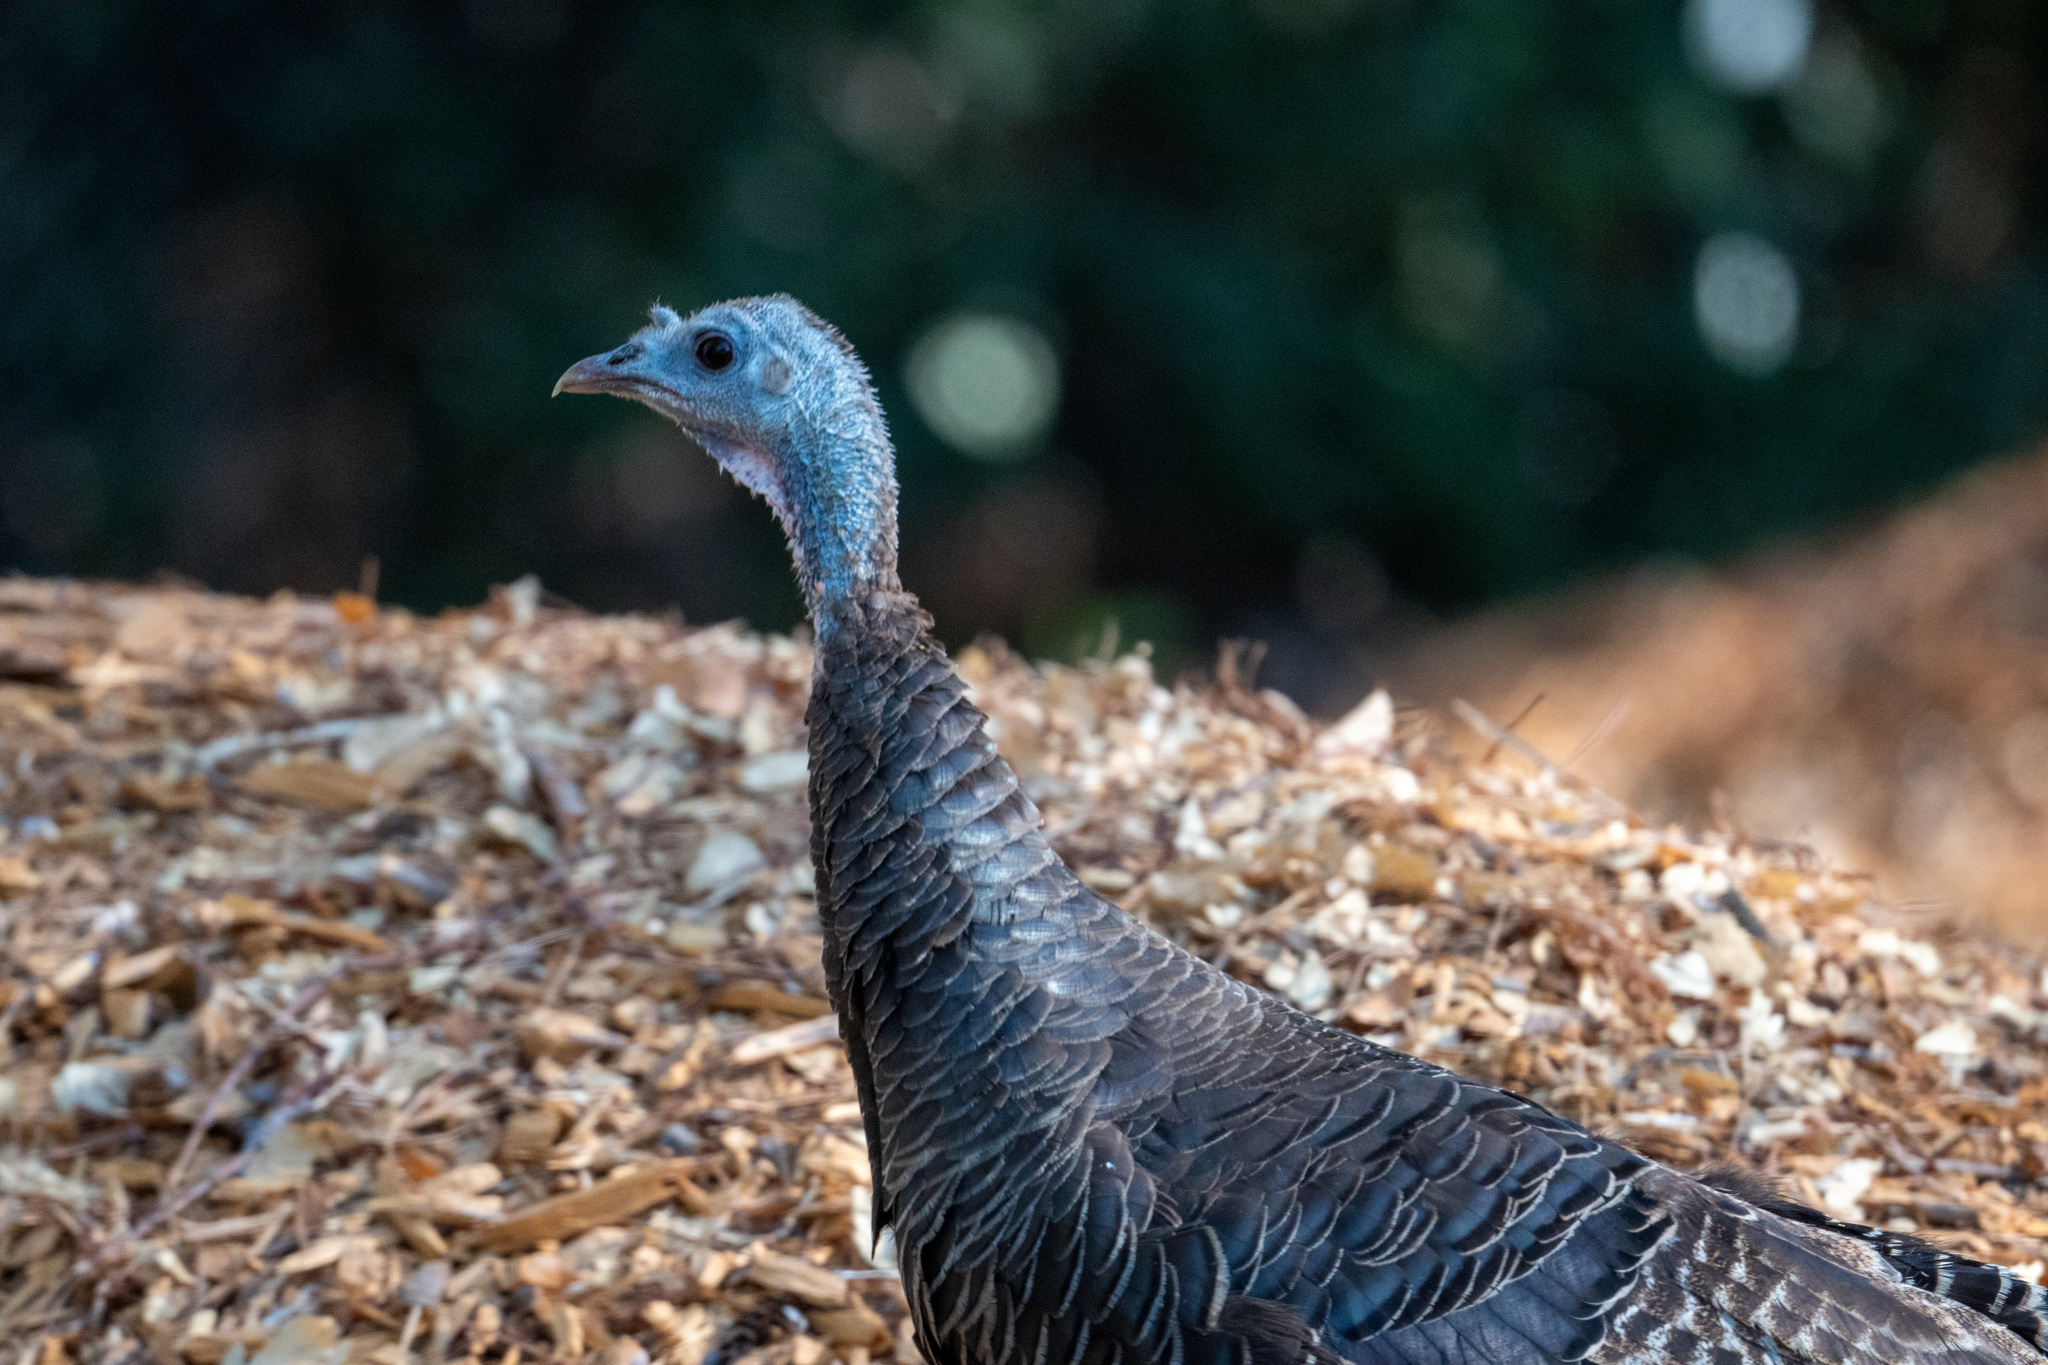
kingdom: Animalia
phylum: Chordata
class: Aves
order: Galliformes
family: Phasianidae
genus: Meleagris
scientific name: Meleagris gallopavo
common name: Wild turkey
